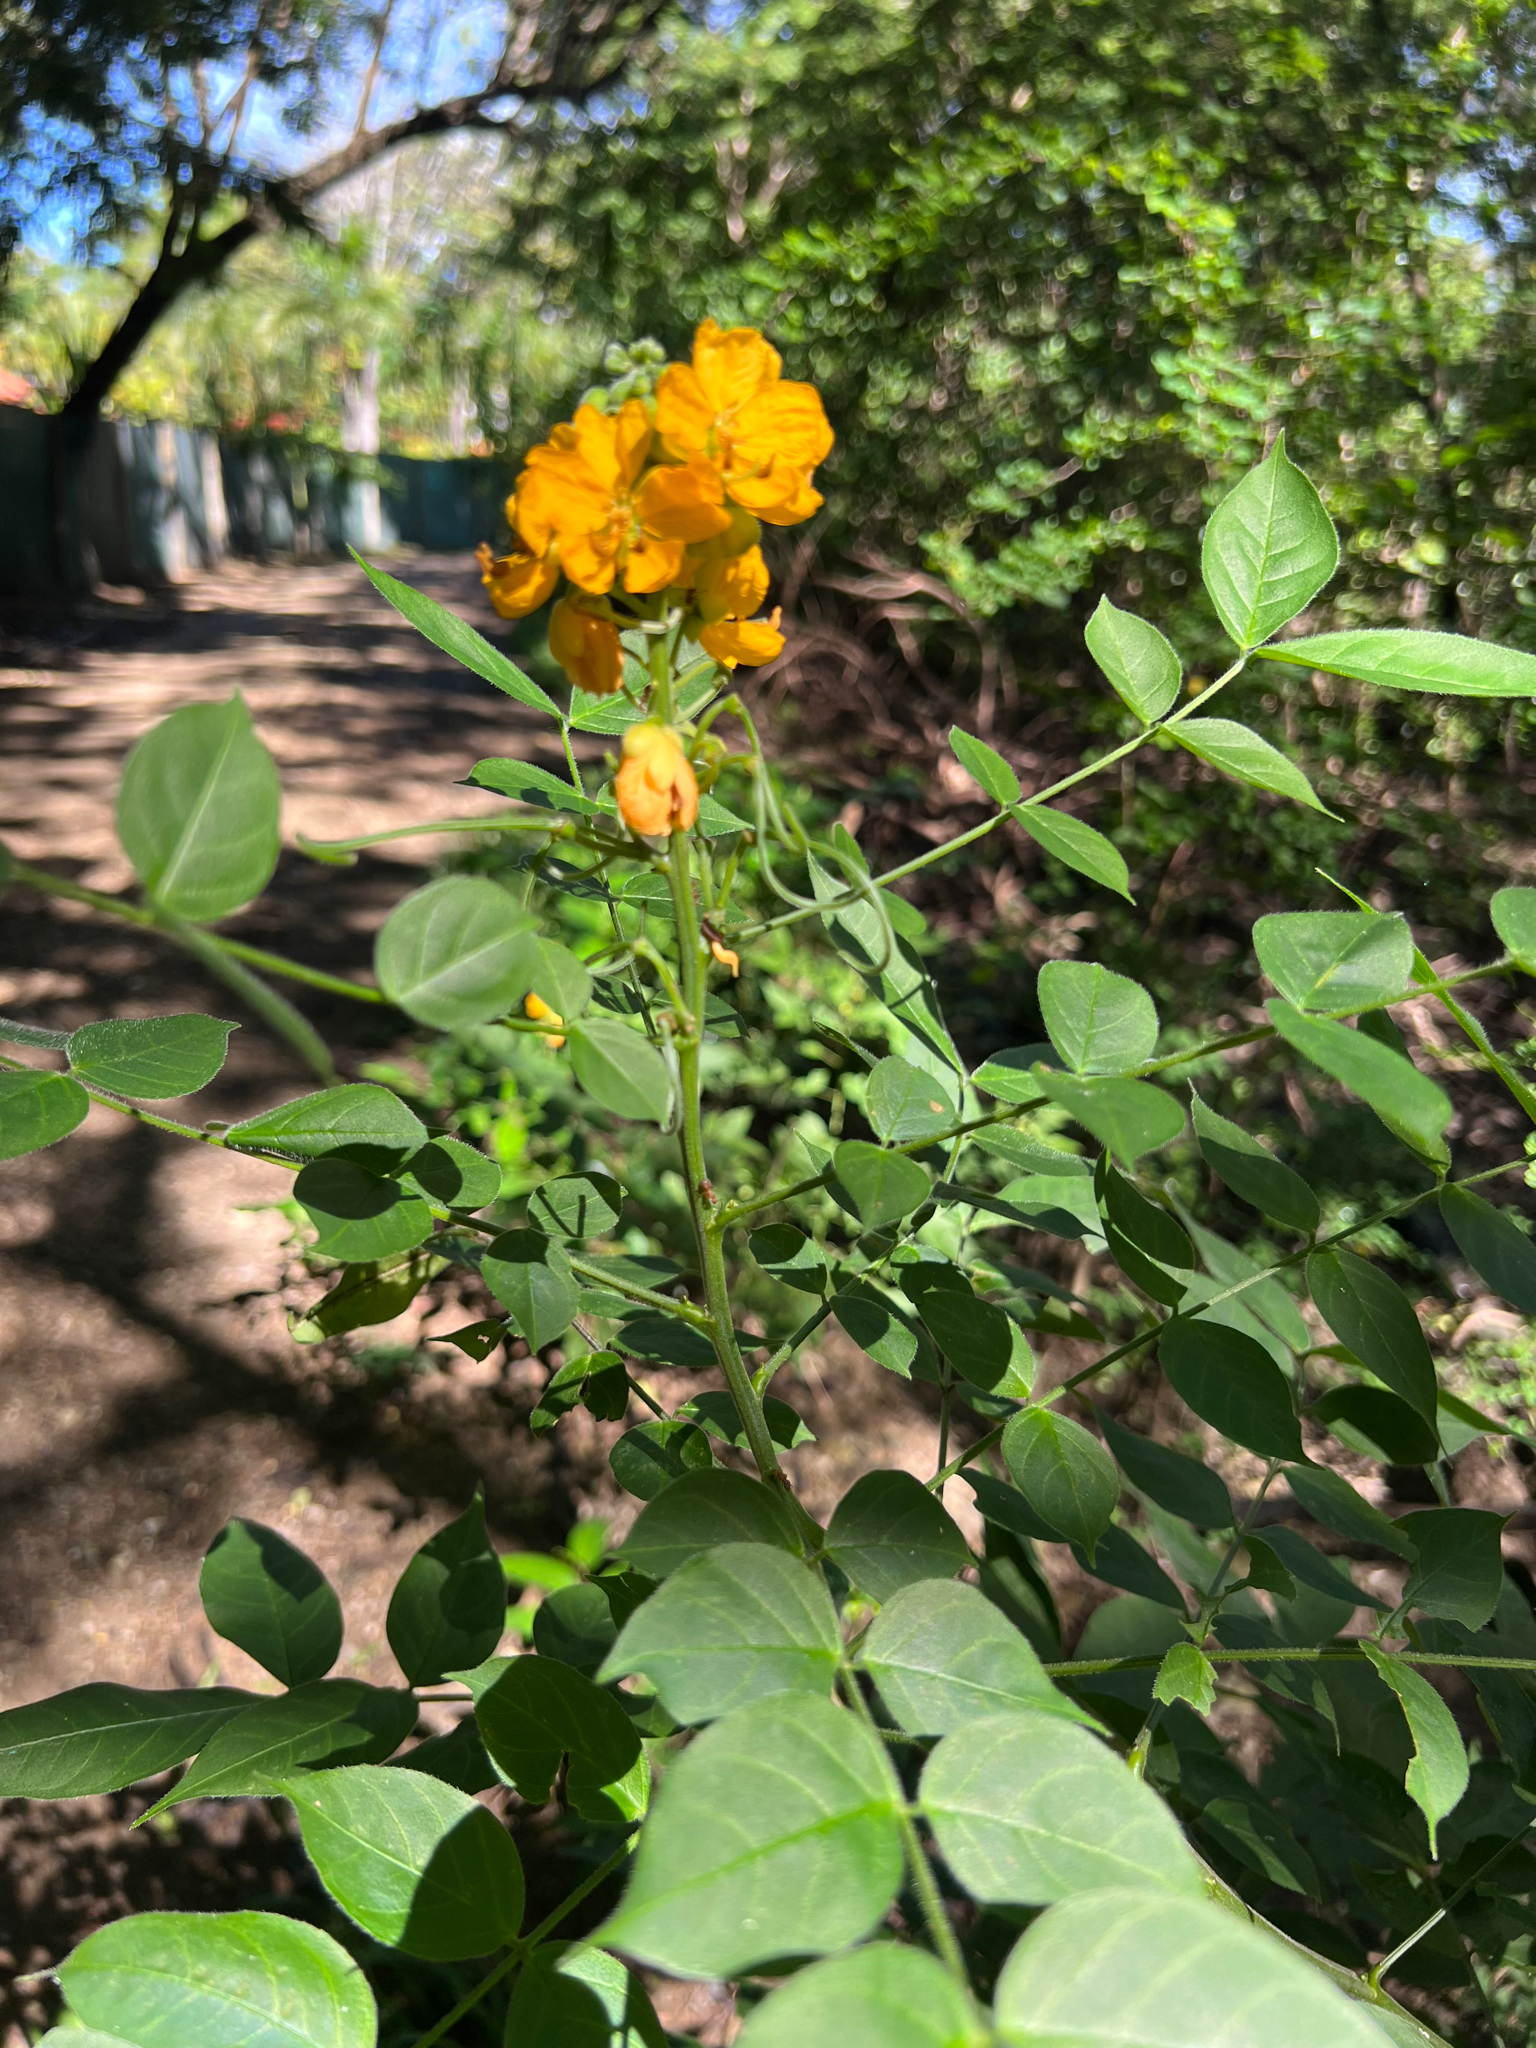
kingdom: Plantae
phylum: Tracheophyta
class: Magnoliopsida
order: Fabales
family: Fabaceae
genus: Senna
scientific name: Senna hirsuta
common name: Woolly senna
